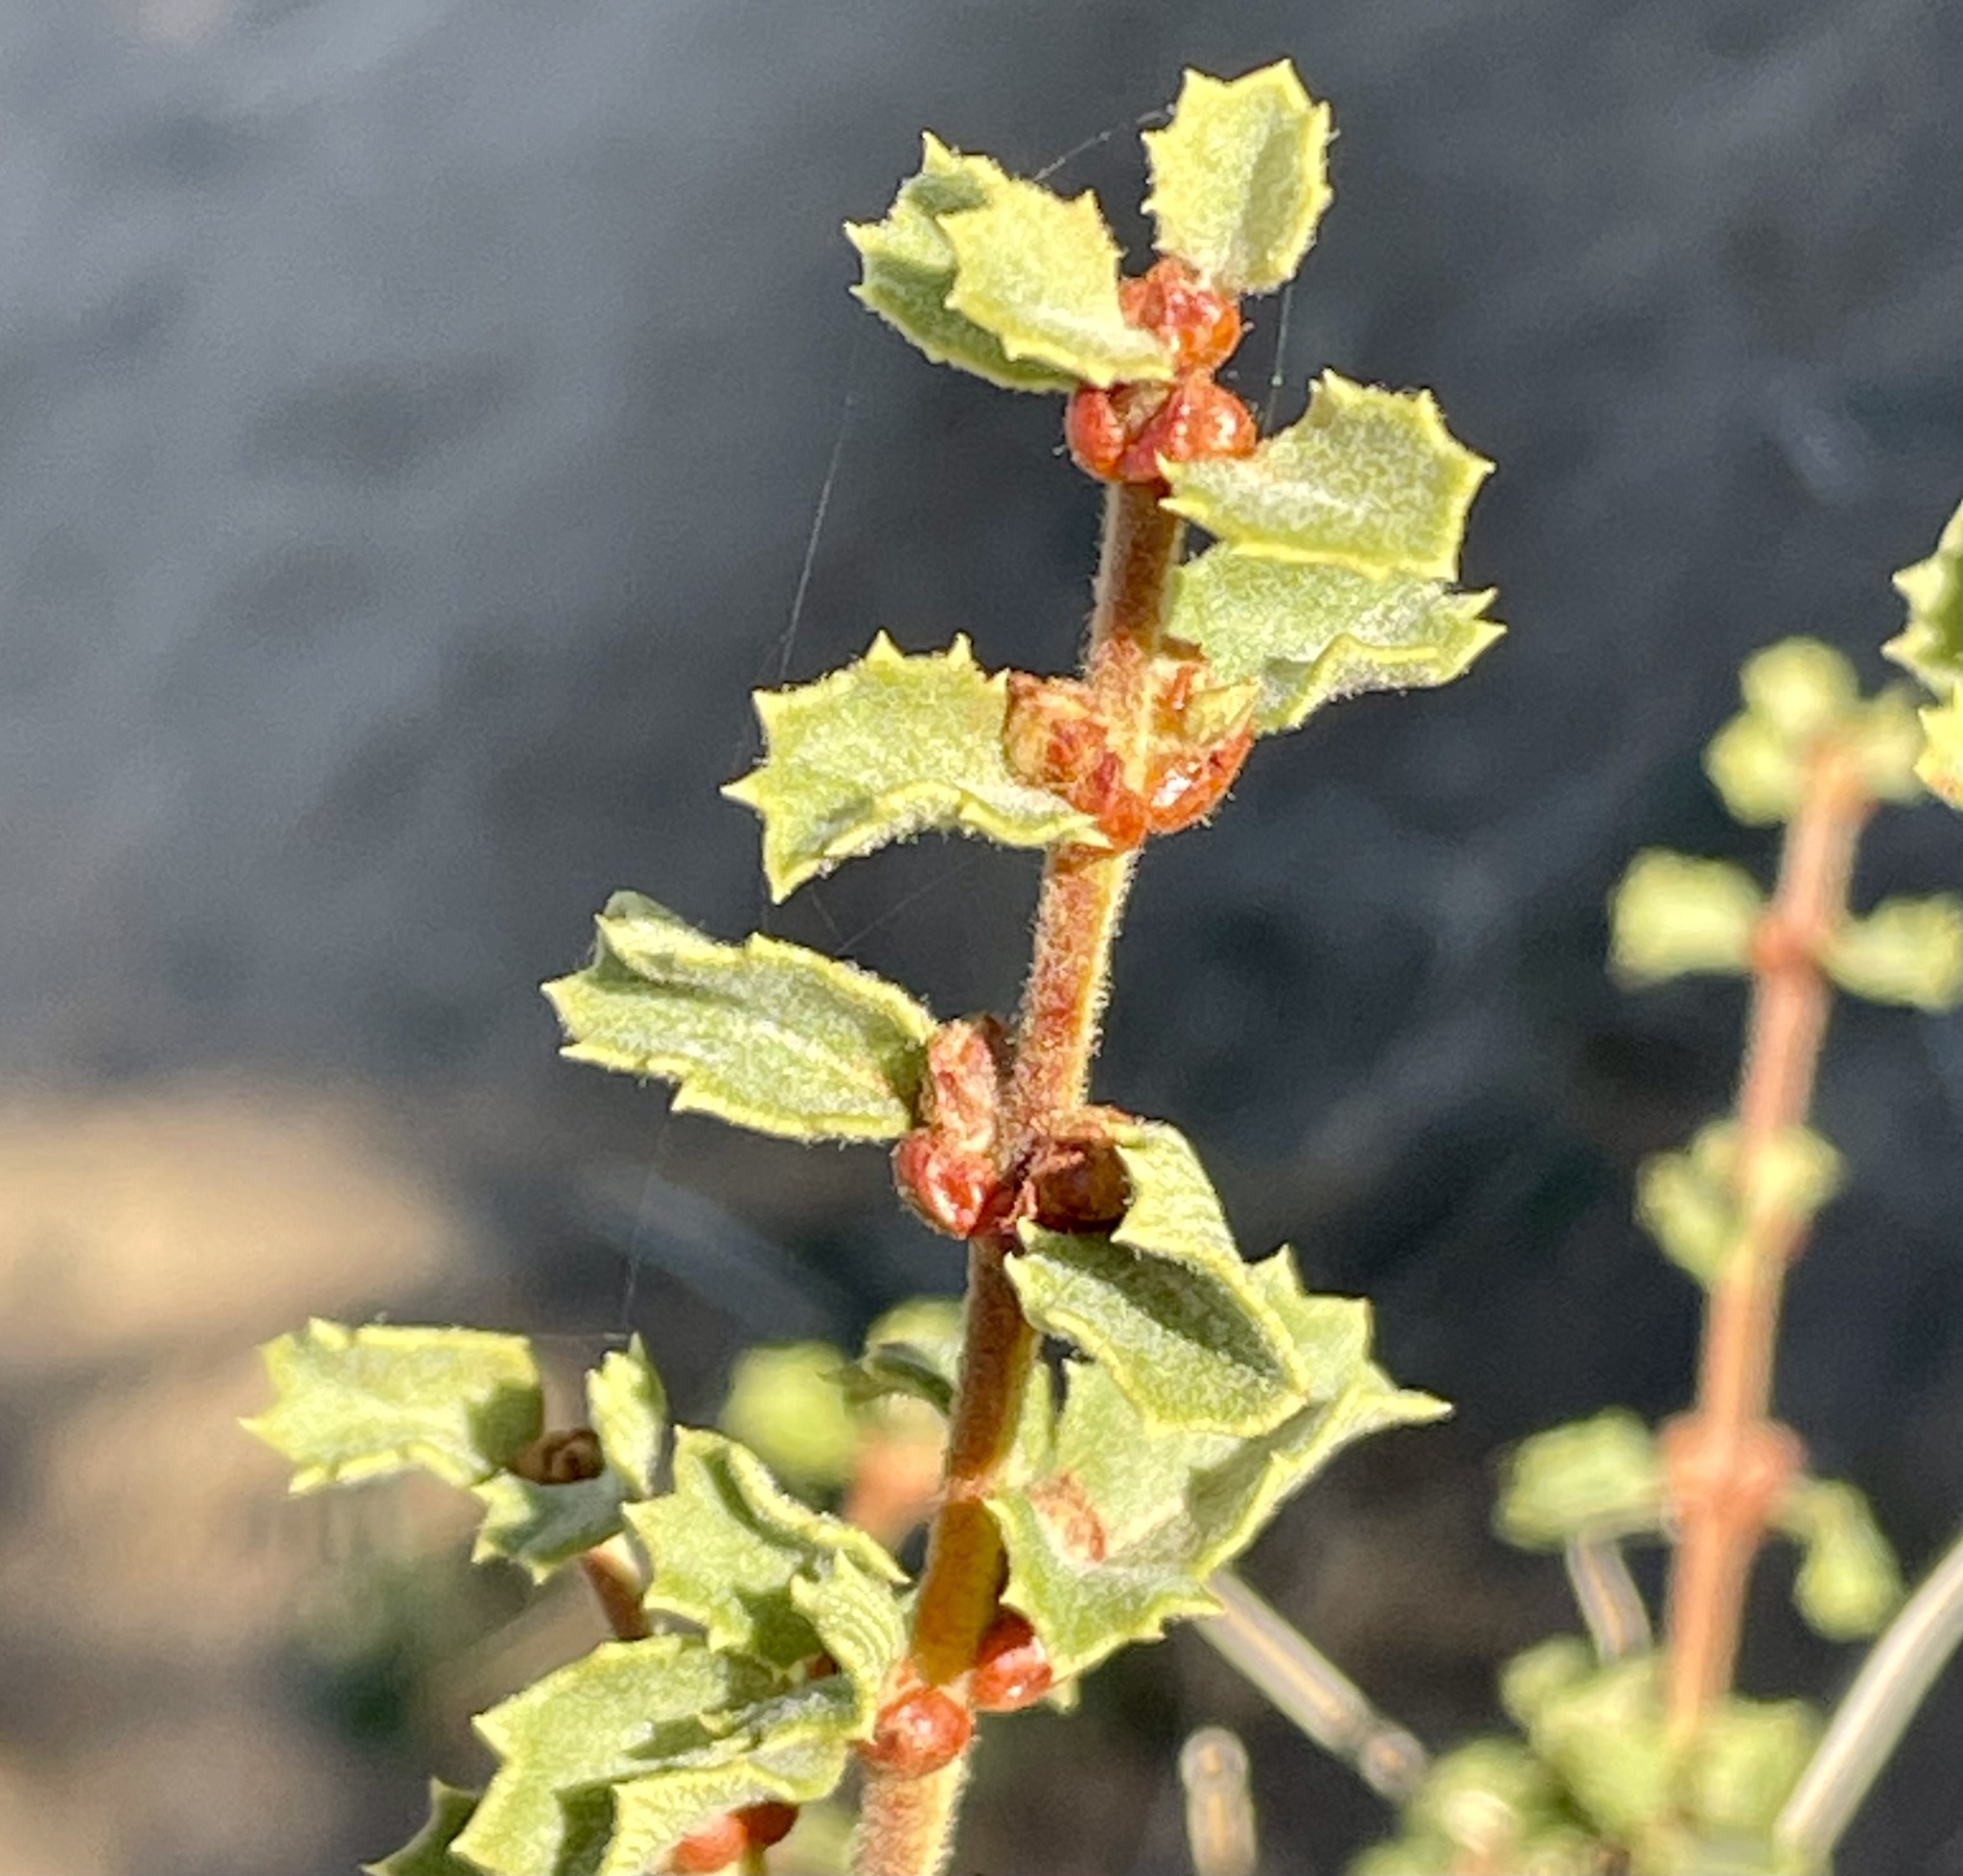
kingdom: Plantae
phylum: Tracheophyta
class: Magnoliopsida
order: Rosales
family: Rhamnaceae
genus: Ceanothus
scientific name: Ceanothus perplexans
